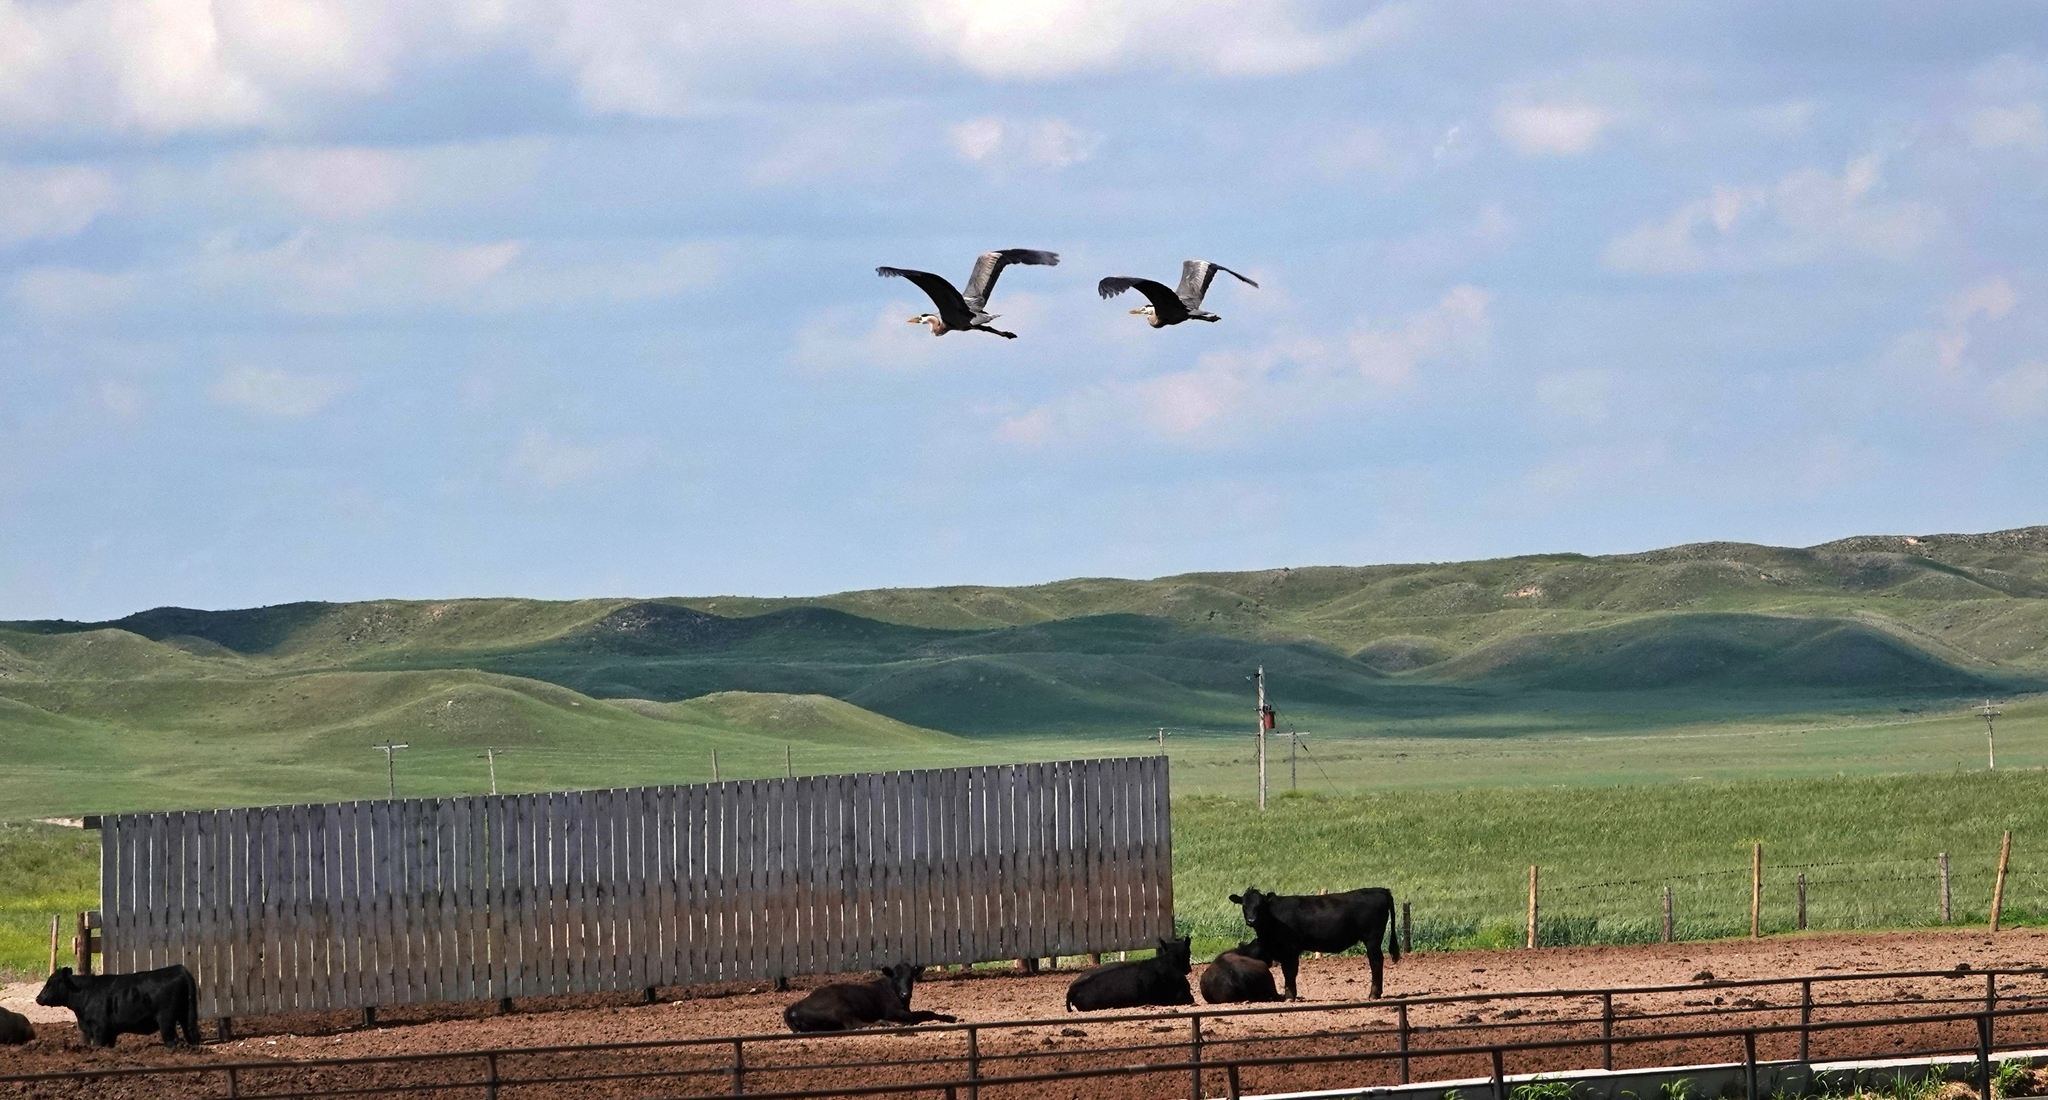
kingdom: Animalia
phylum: Chordata
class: Aves
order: Pelecaniformes
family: Ardeidae
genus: Ardea
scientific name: Ardea herodias
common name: Great blue heron
